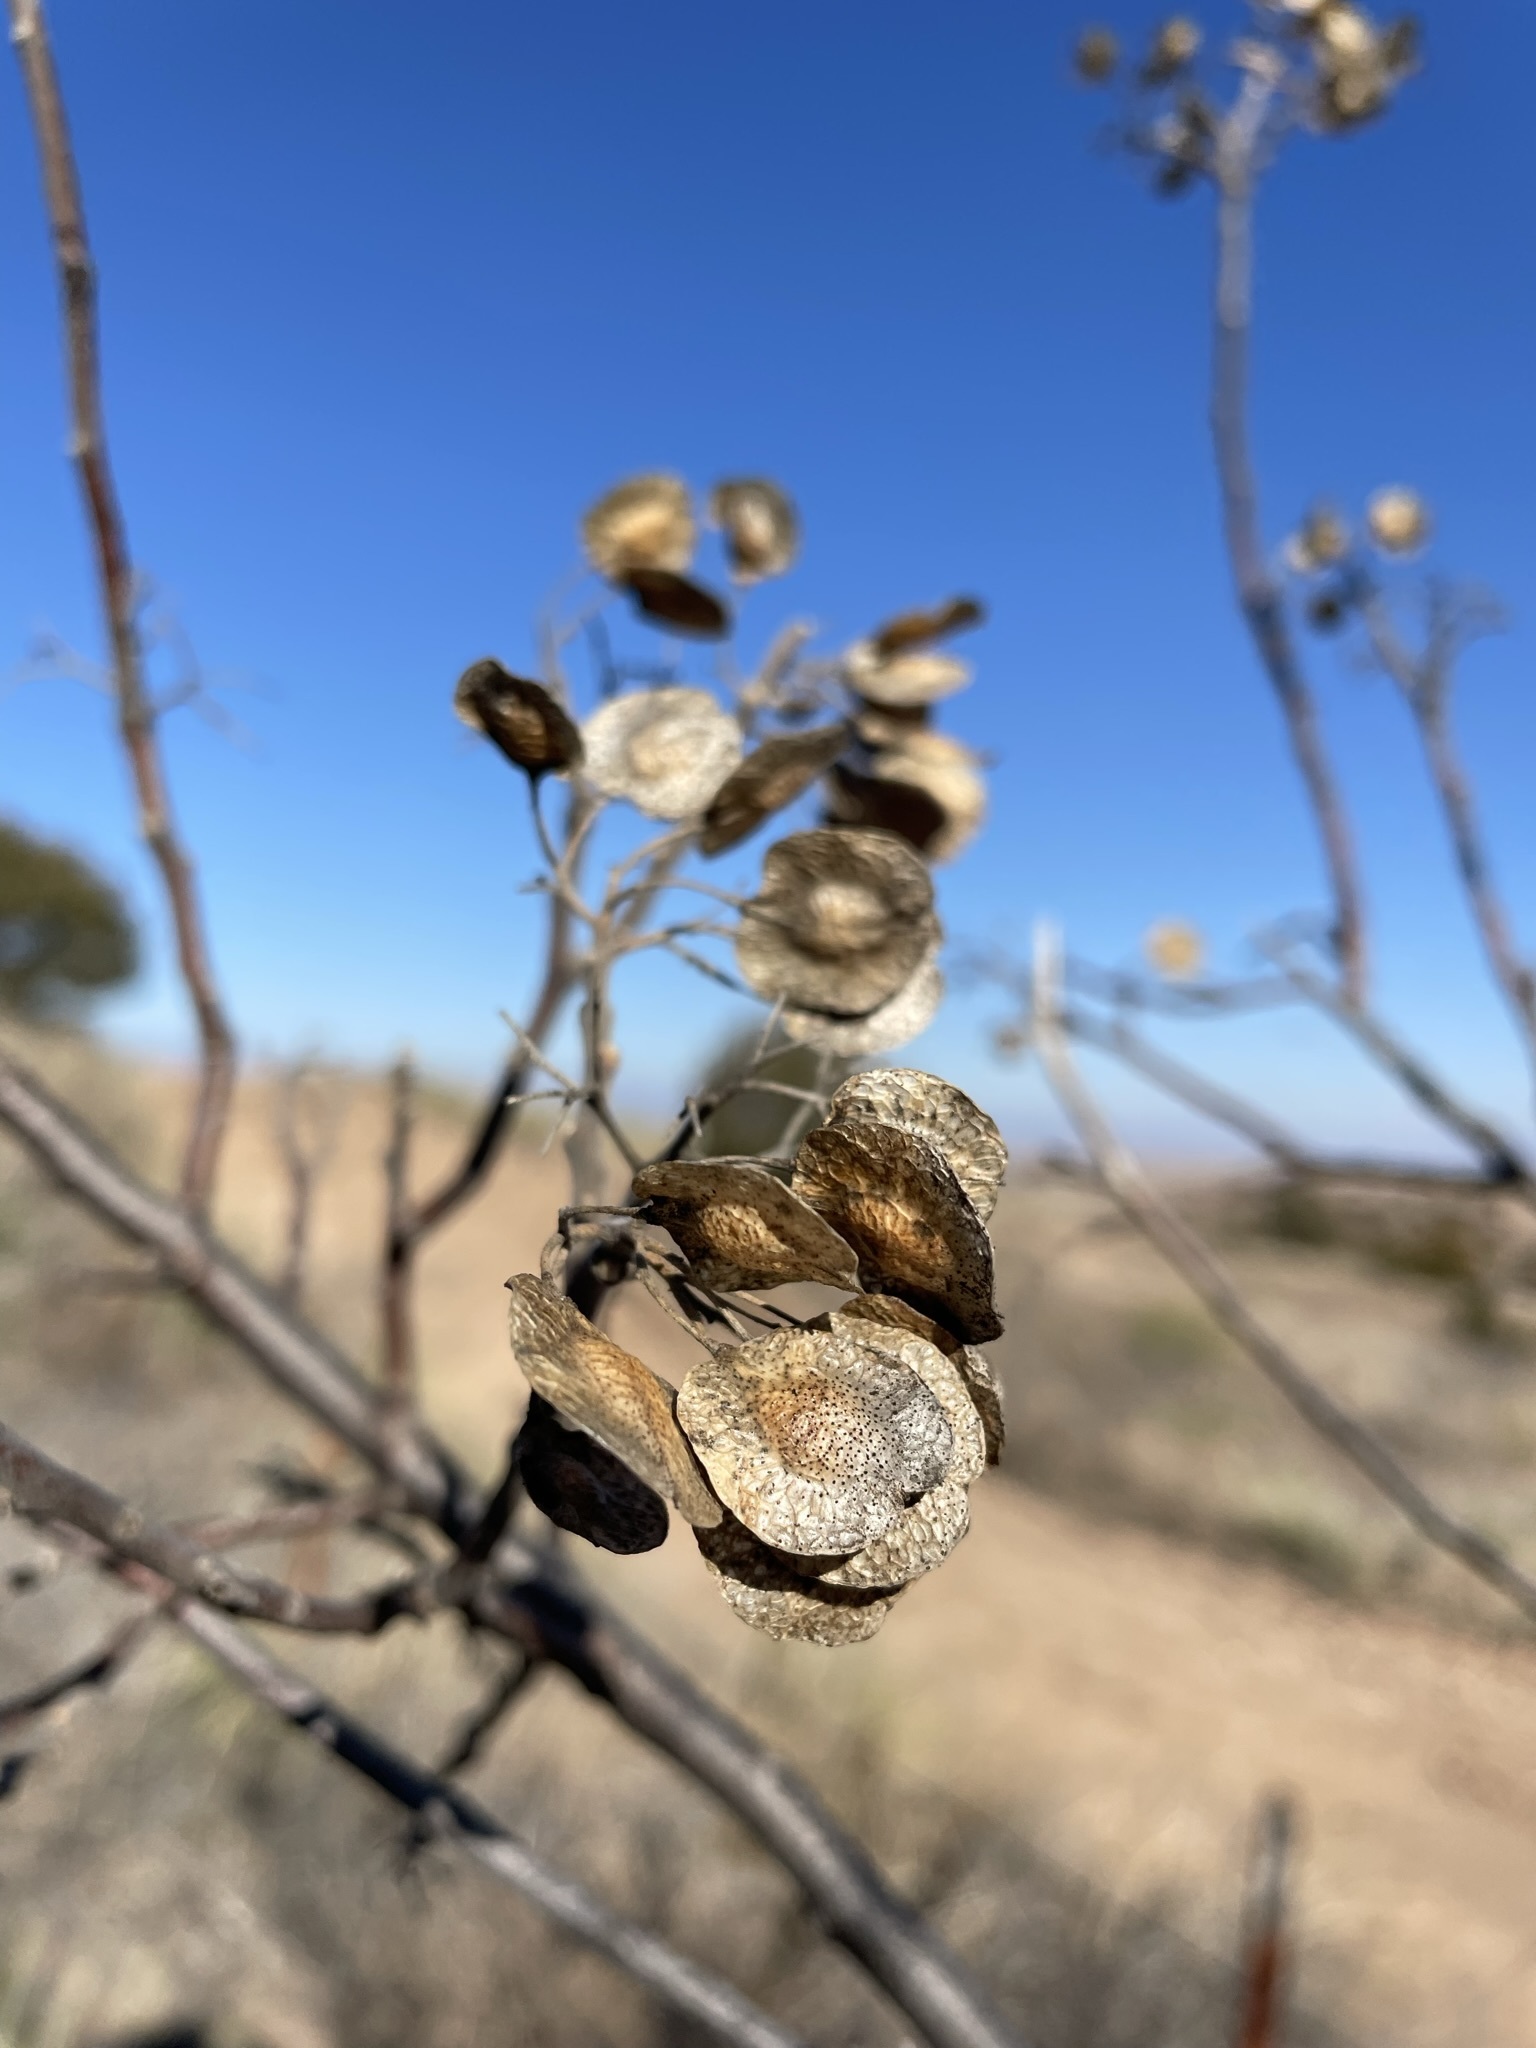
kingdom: Plantae
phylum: Tracheophyta
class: Magnoliopsida
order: Sapindales
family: Rutaceae
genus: Ptelea
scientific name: Ptelea trifoliata
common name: Common hop-tree
